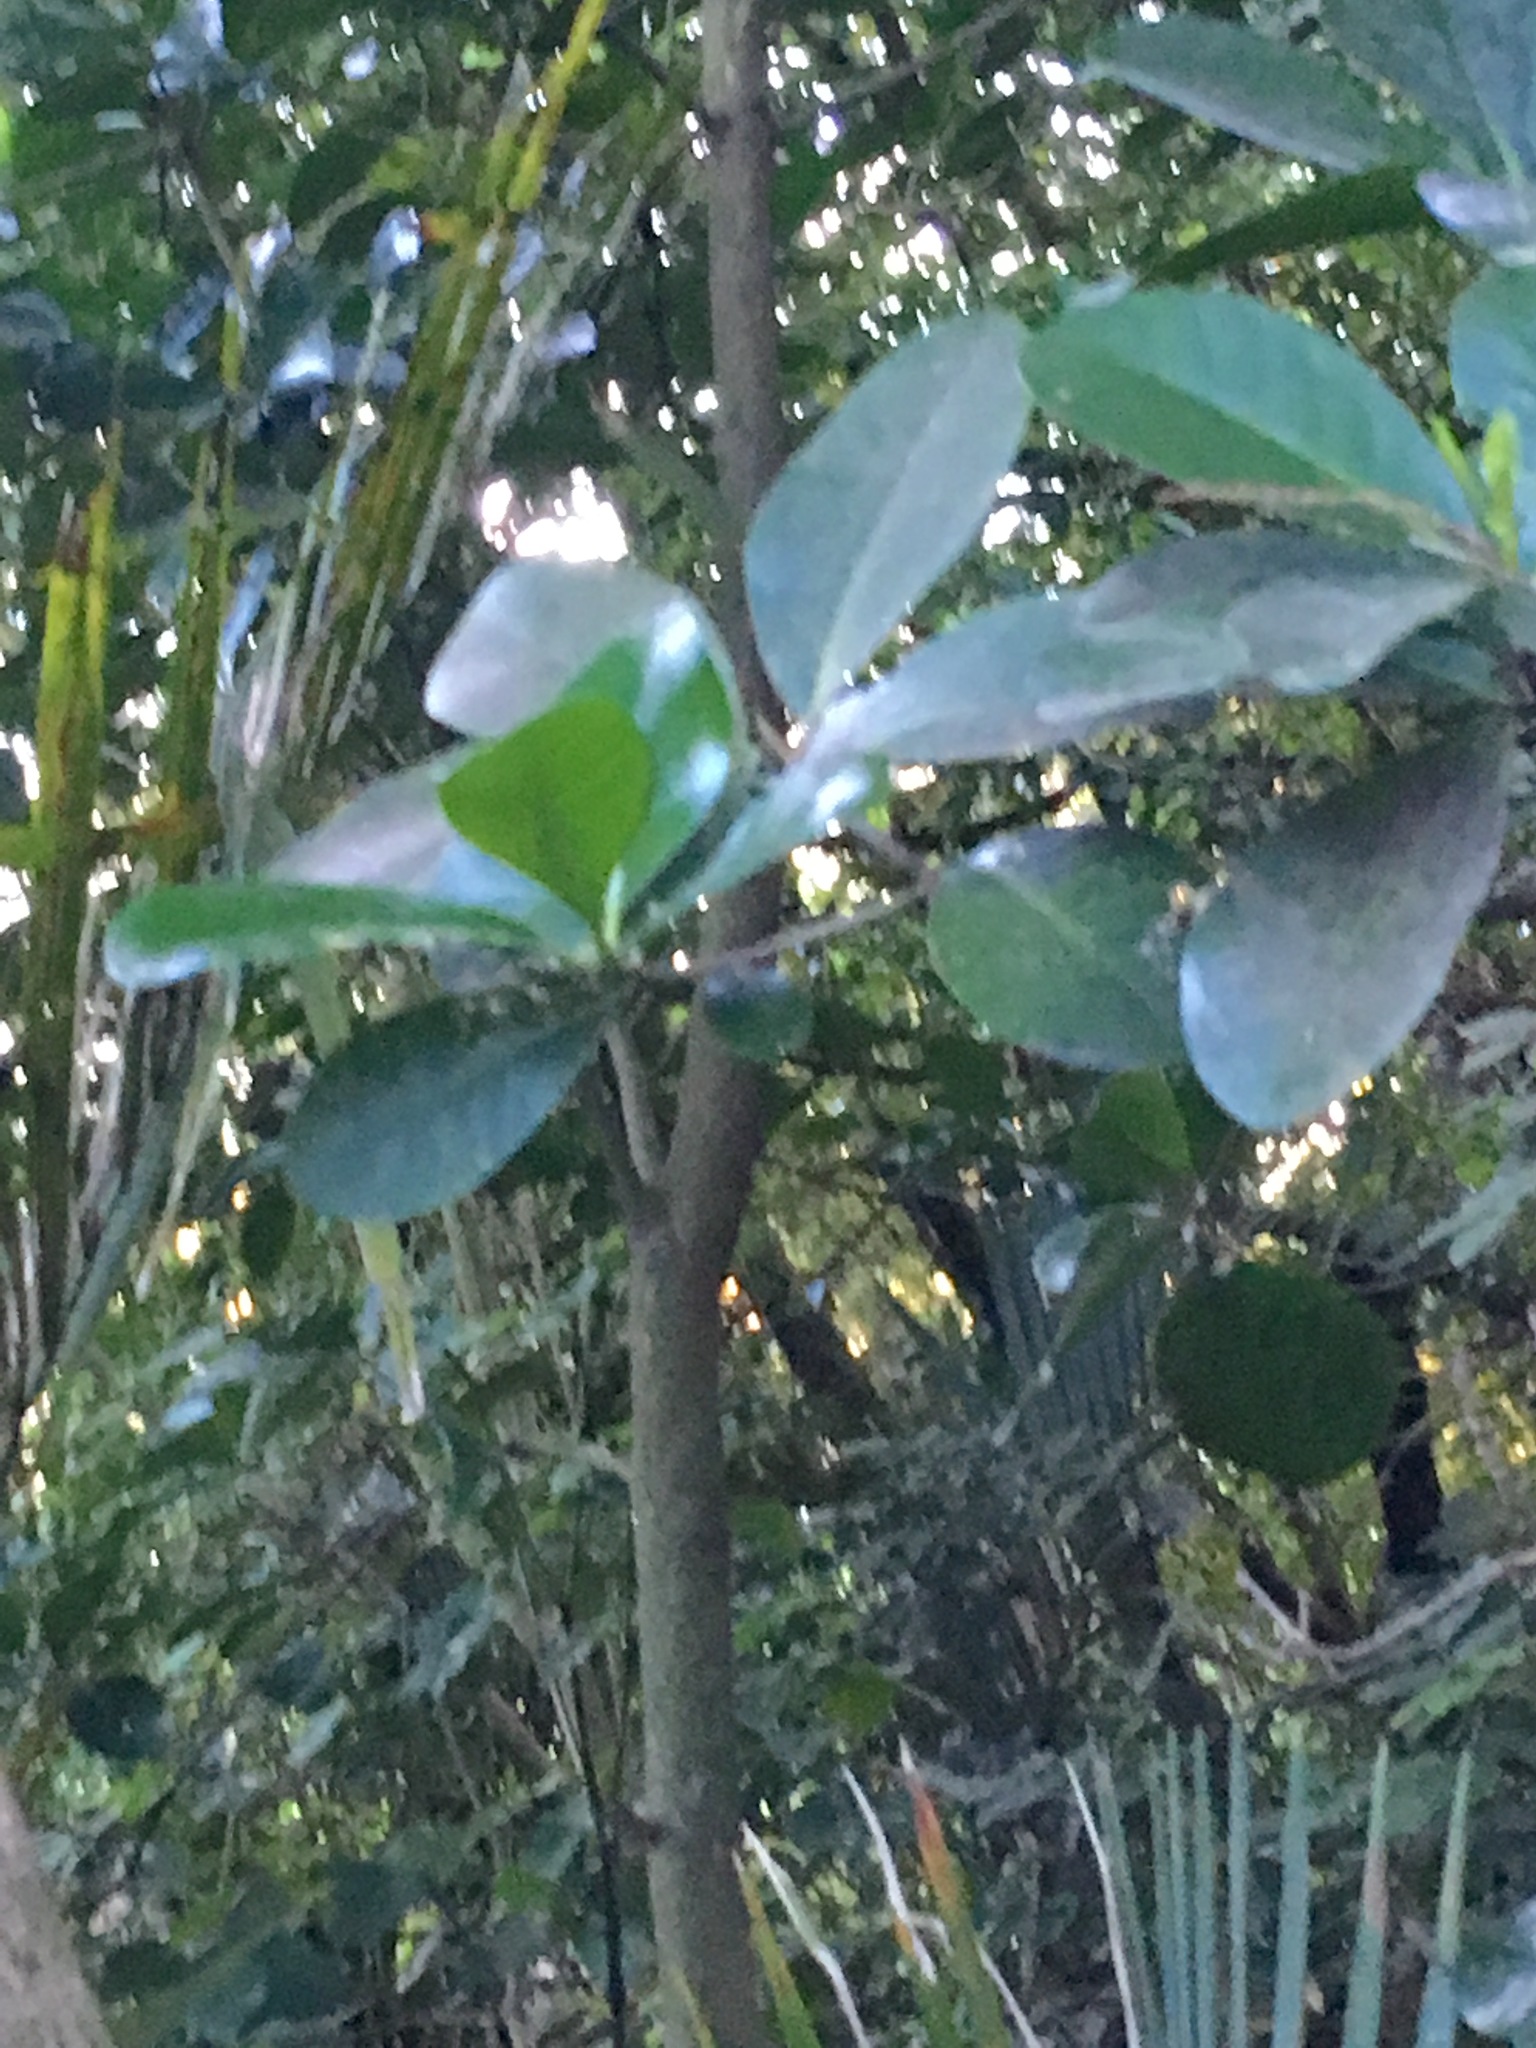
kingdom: Plantae
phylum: Tracheophyta
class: Magnoliopsida
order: Cucurbitales
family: Corynocarpaceae
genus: Corynocarpus
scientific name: Corynocarpus laevigatus
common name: New zealand laurel
